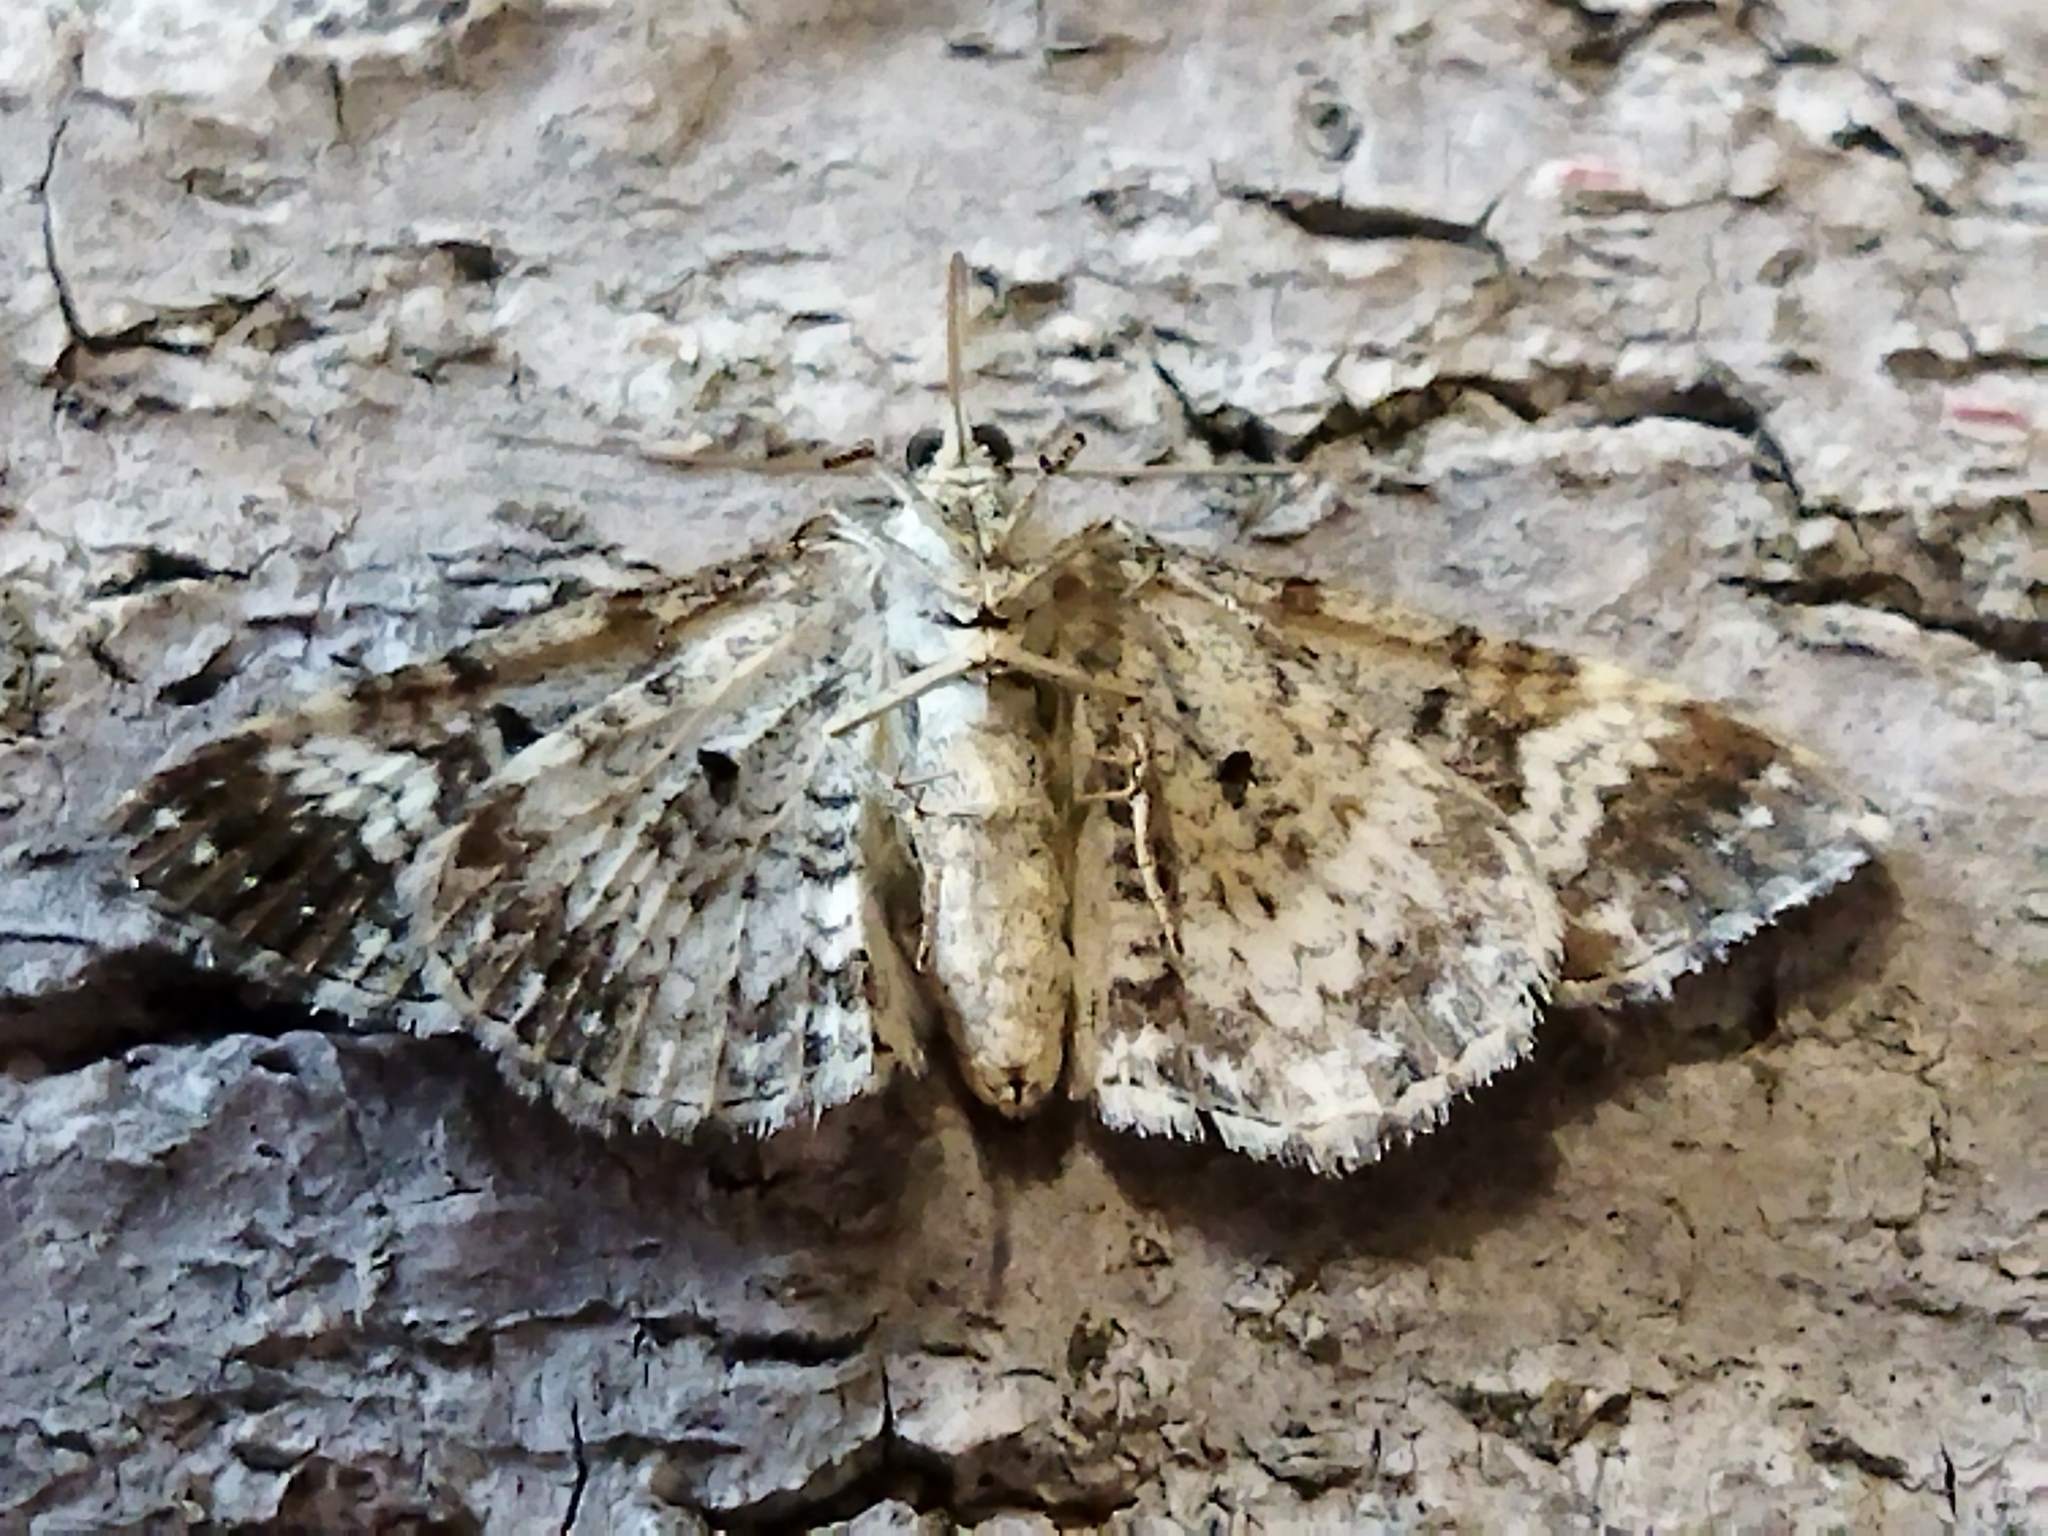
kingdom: Animalia
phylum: Arthropoda
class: Insecta
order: Lepidoptera
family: Geometridae
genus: Epirrhoe
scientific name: Epirrhoe alternata
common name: Common carpet
